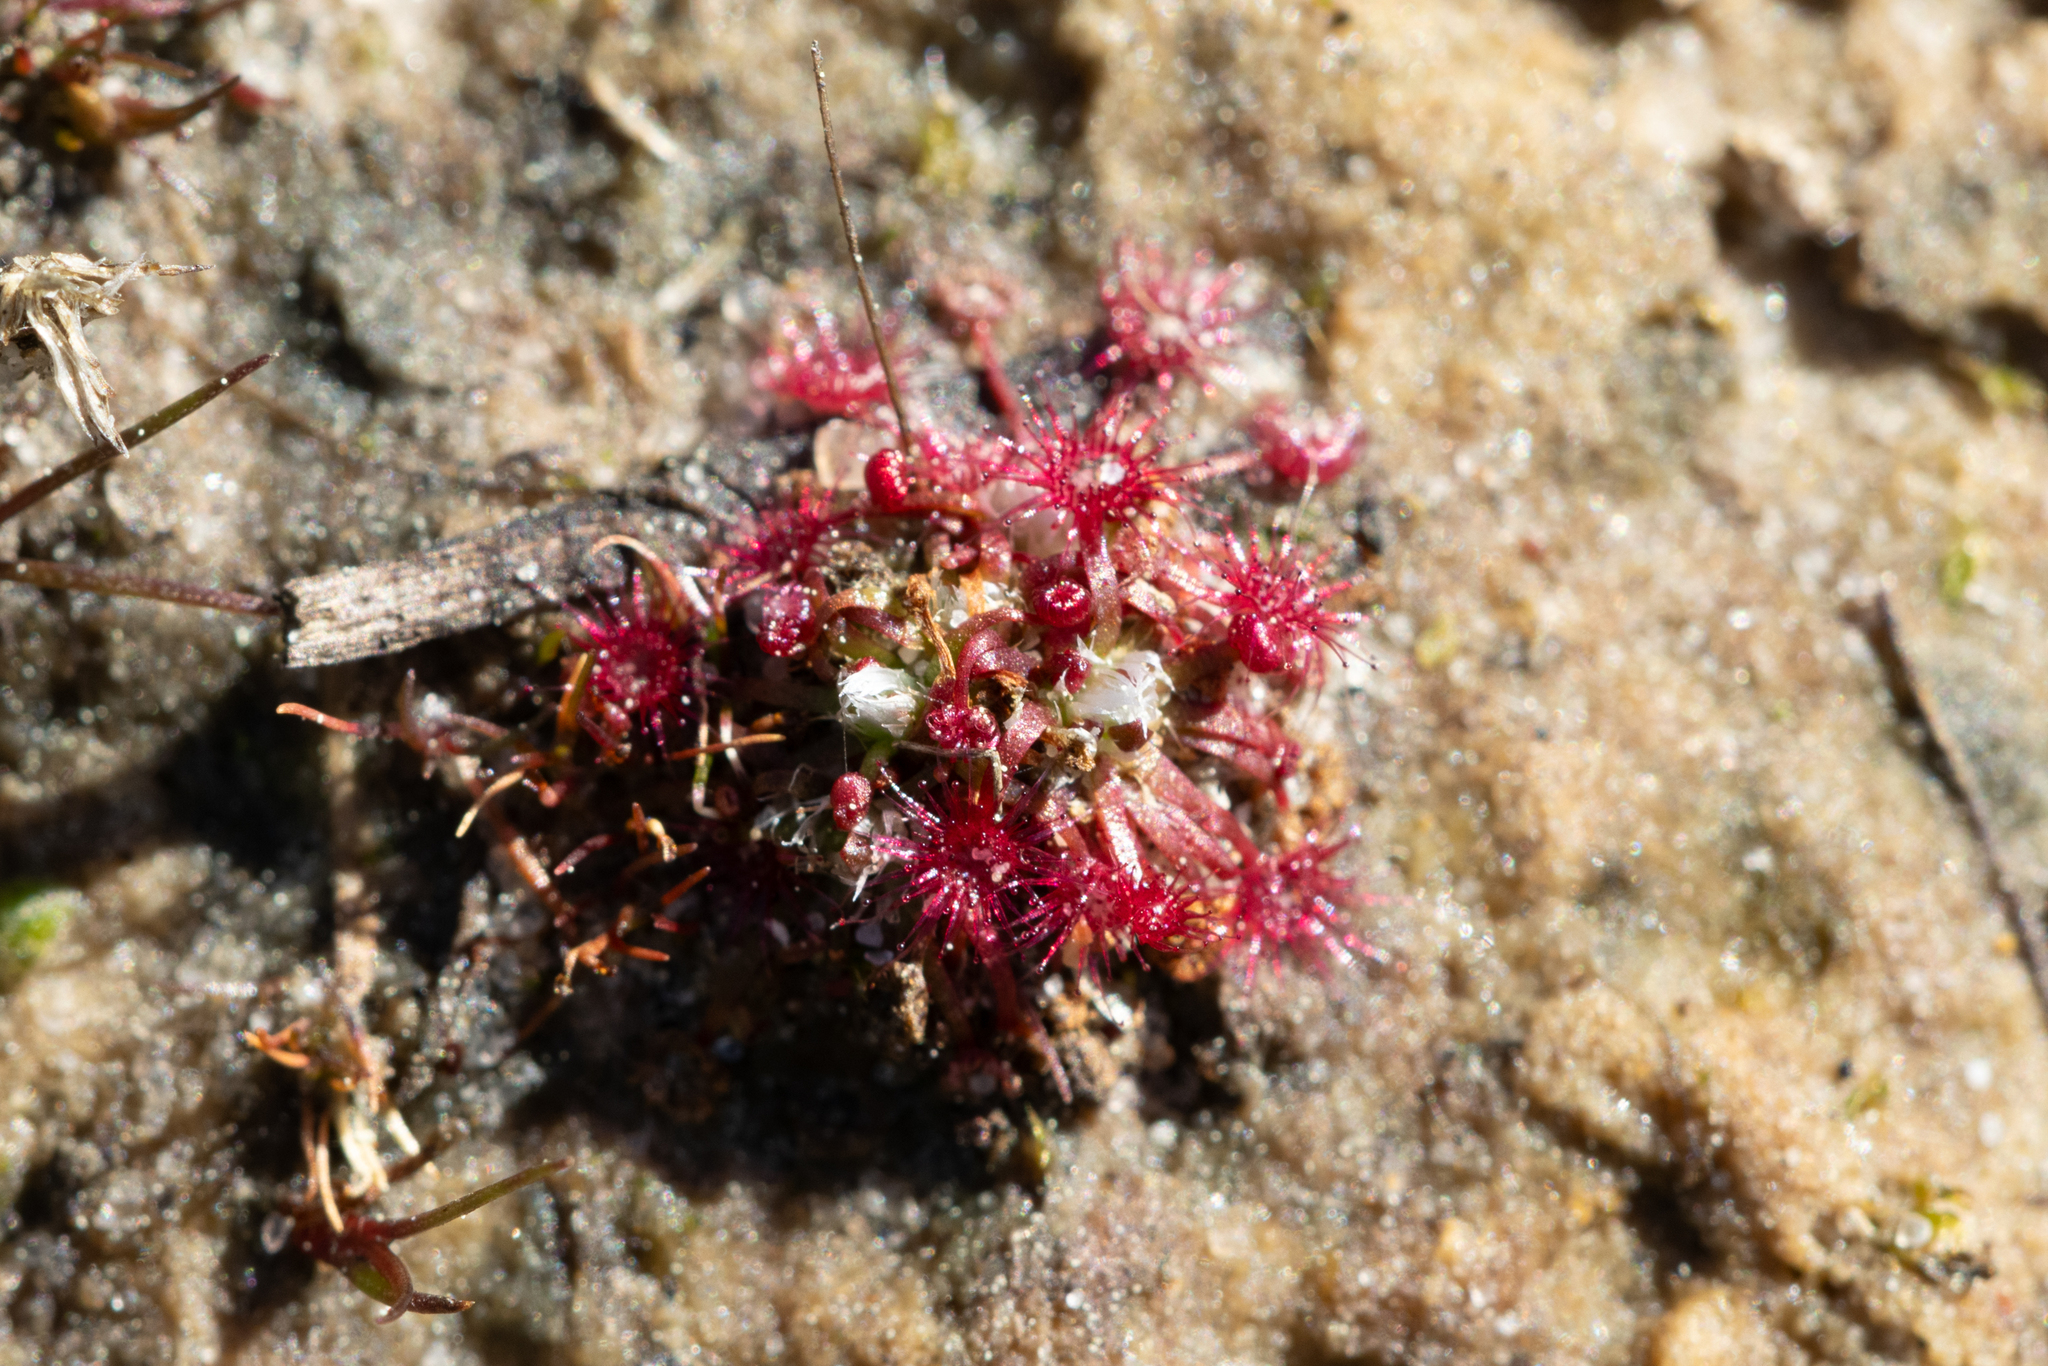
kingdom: Plantae
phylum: Tracheophyta
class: Magnoliopsida
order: Caryophyllales
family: Droseraceae
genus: Drosera
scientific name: Drosera pygmaea
